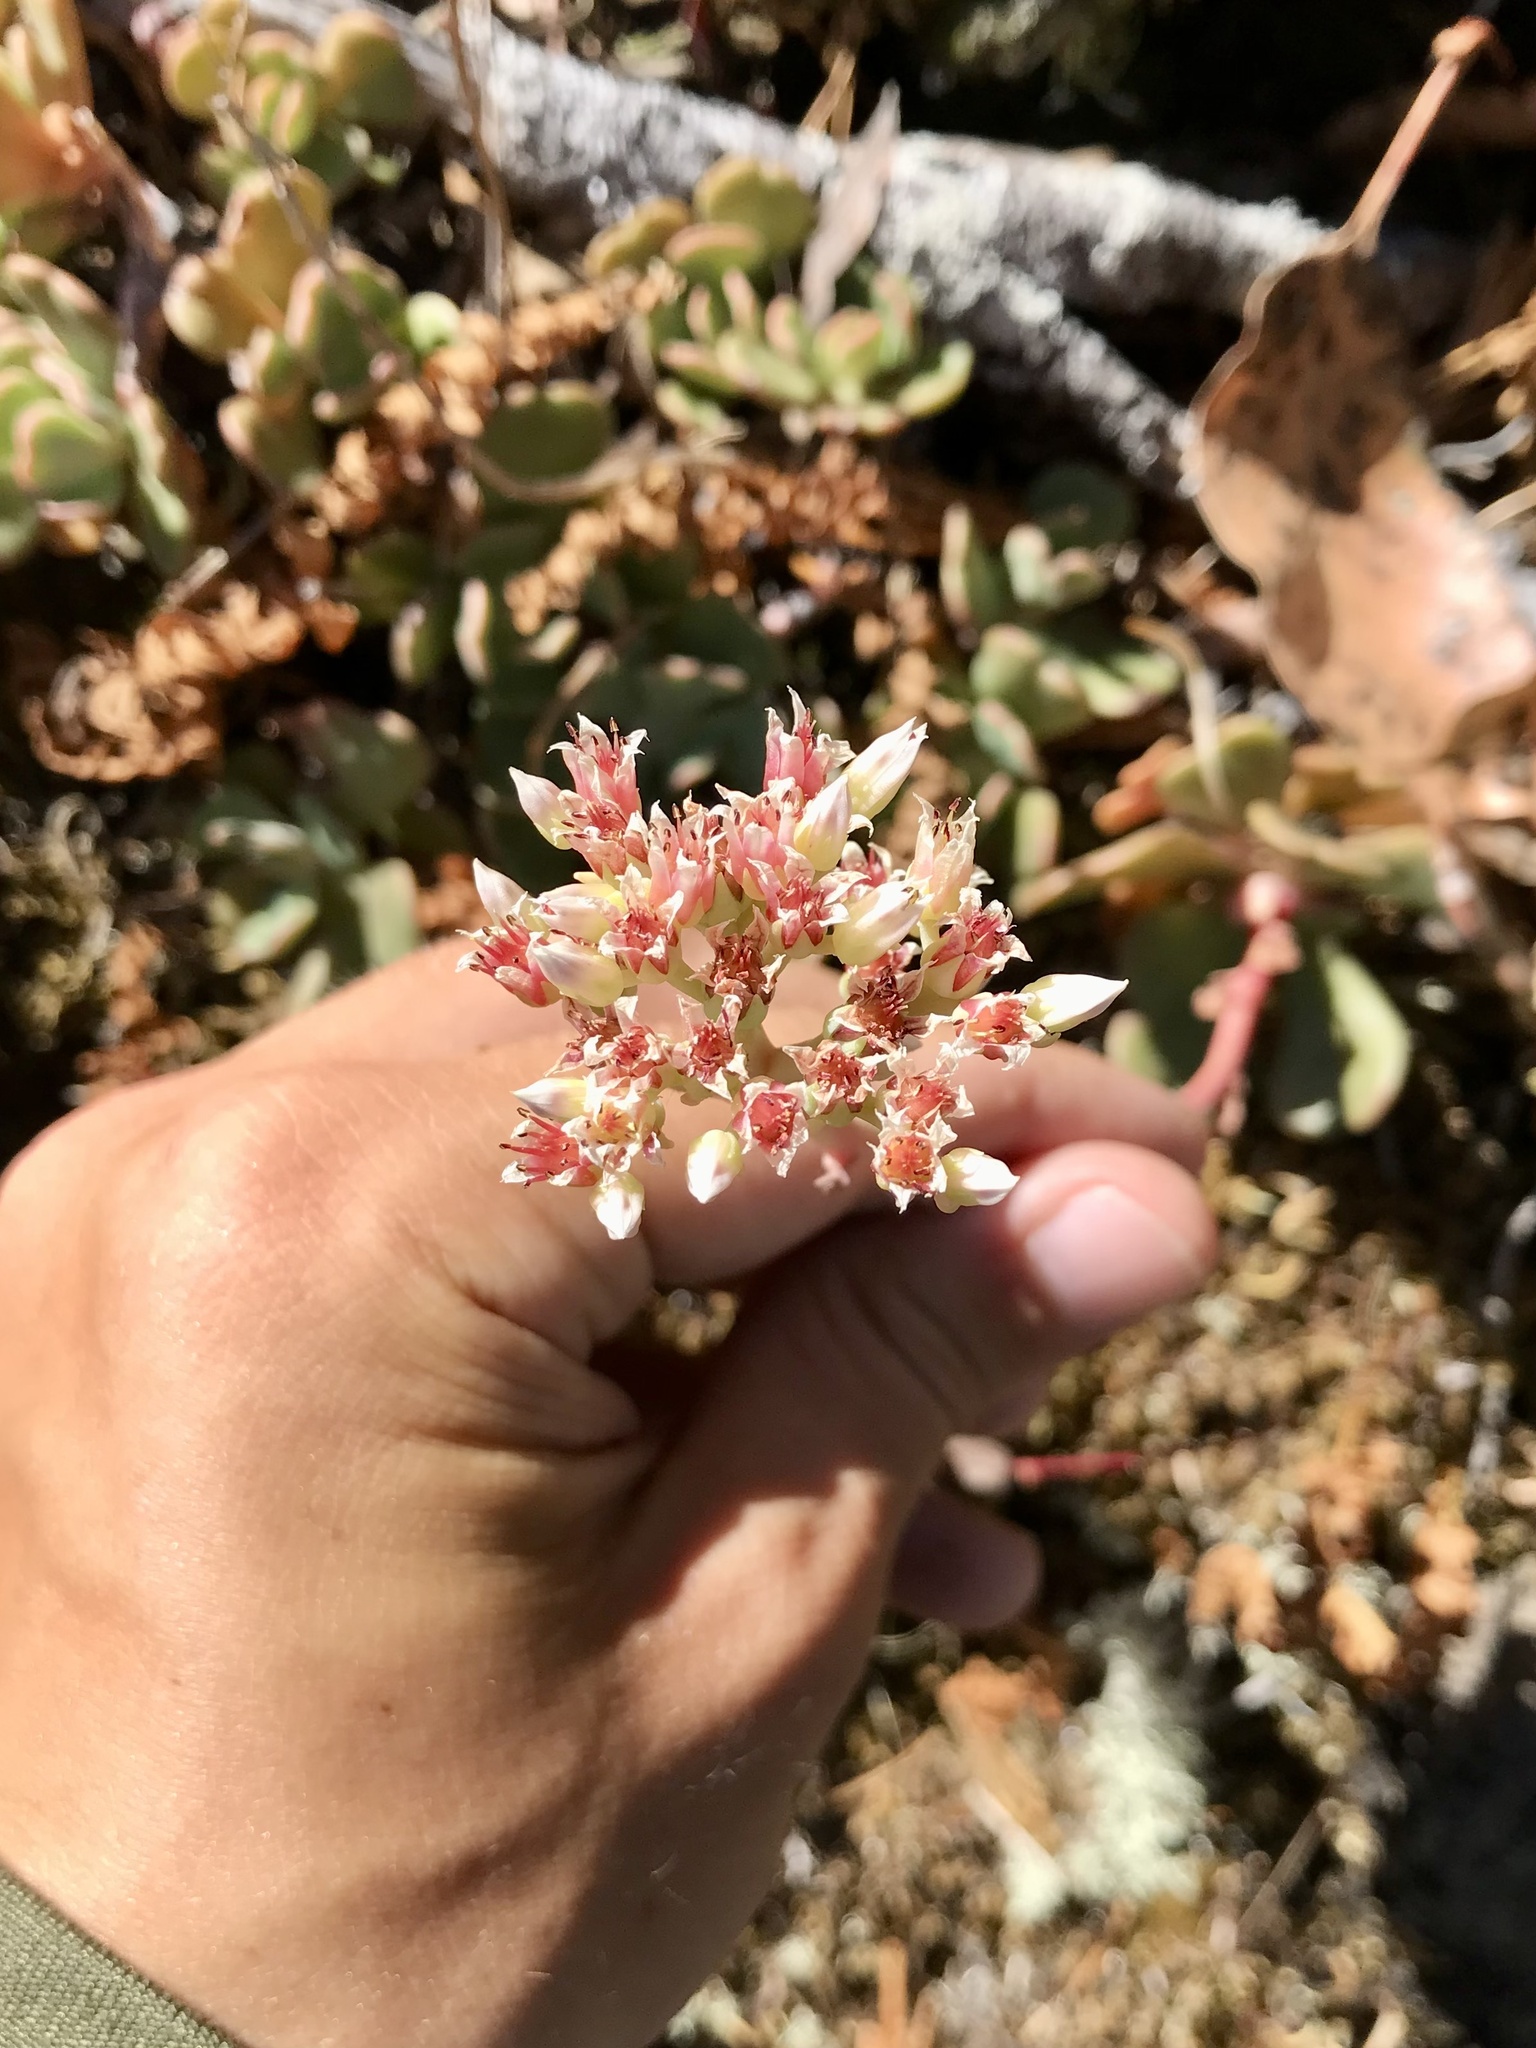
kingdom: Plantae
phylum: Tracheophyta
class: Magnoliopsida
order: Saxifragales
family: Crassulaceae
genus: Sedum
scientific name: Sedum laxum
